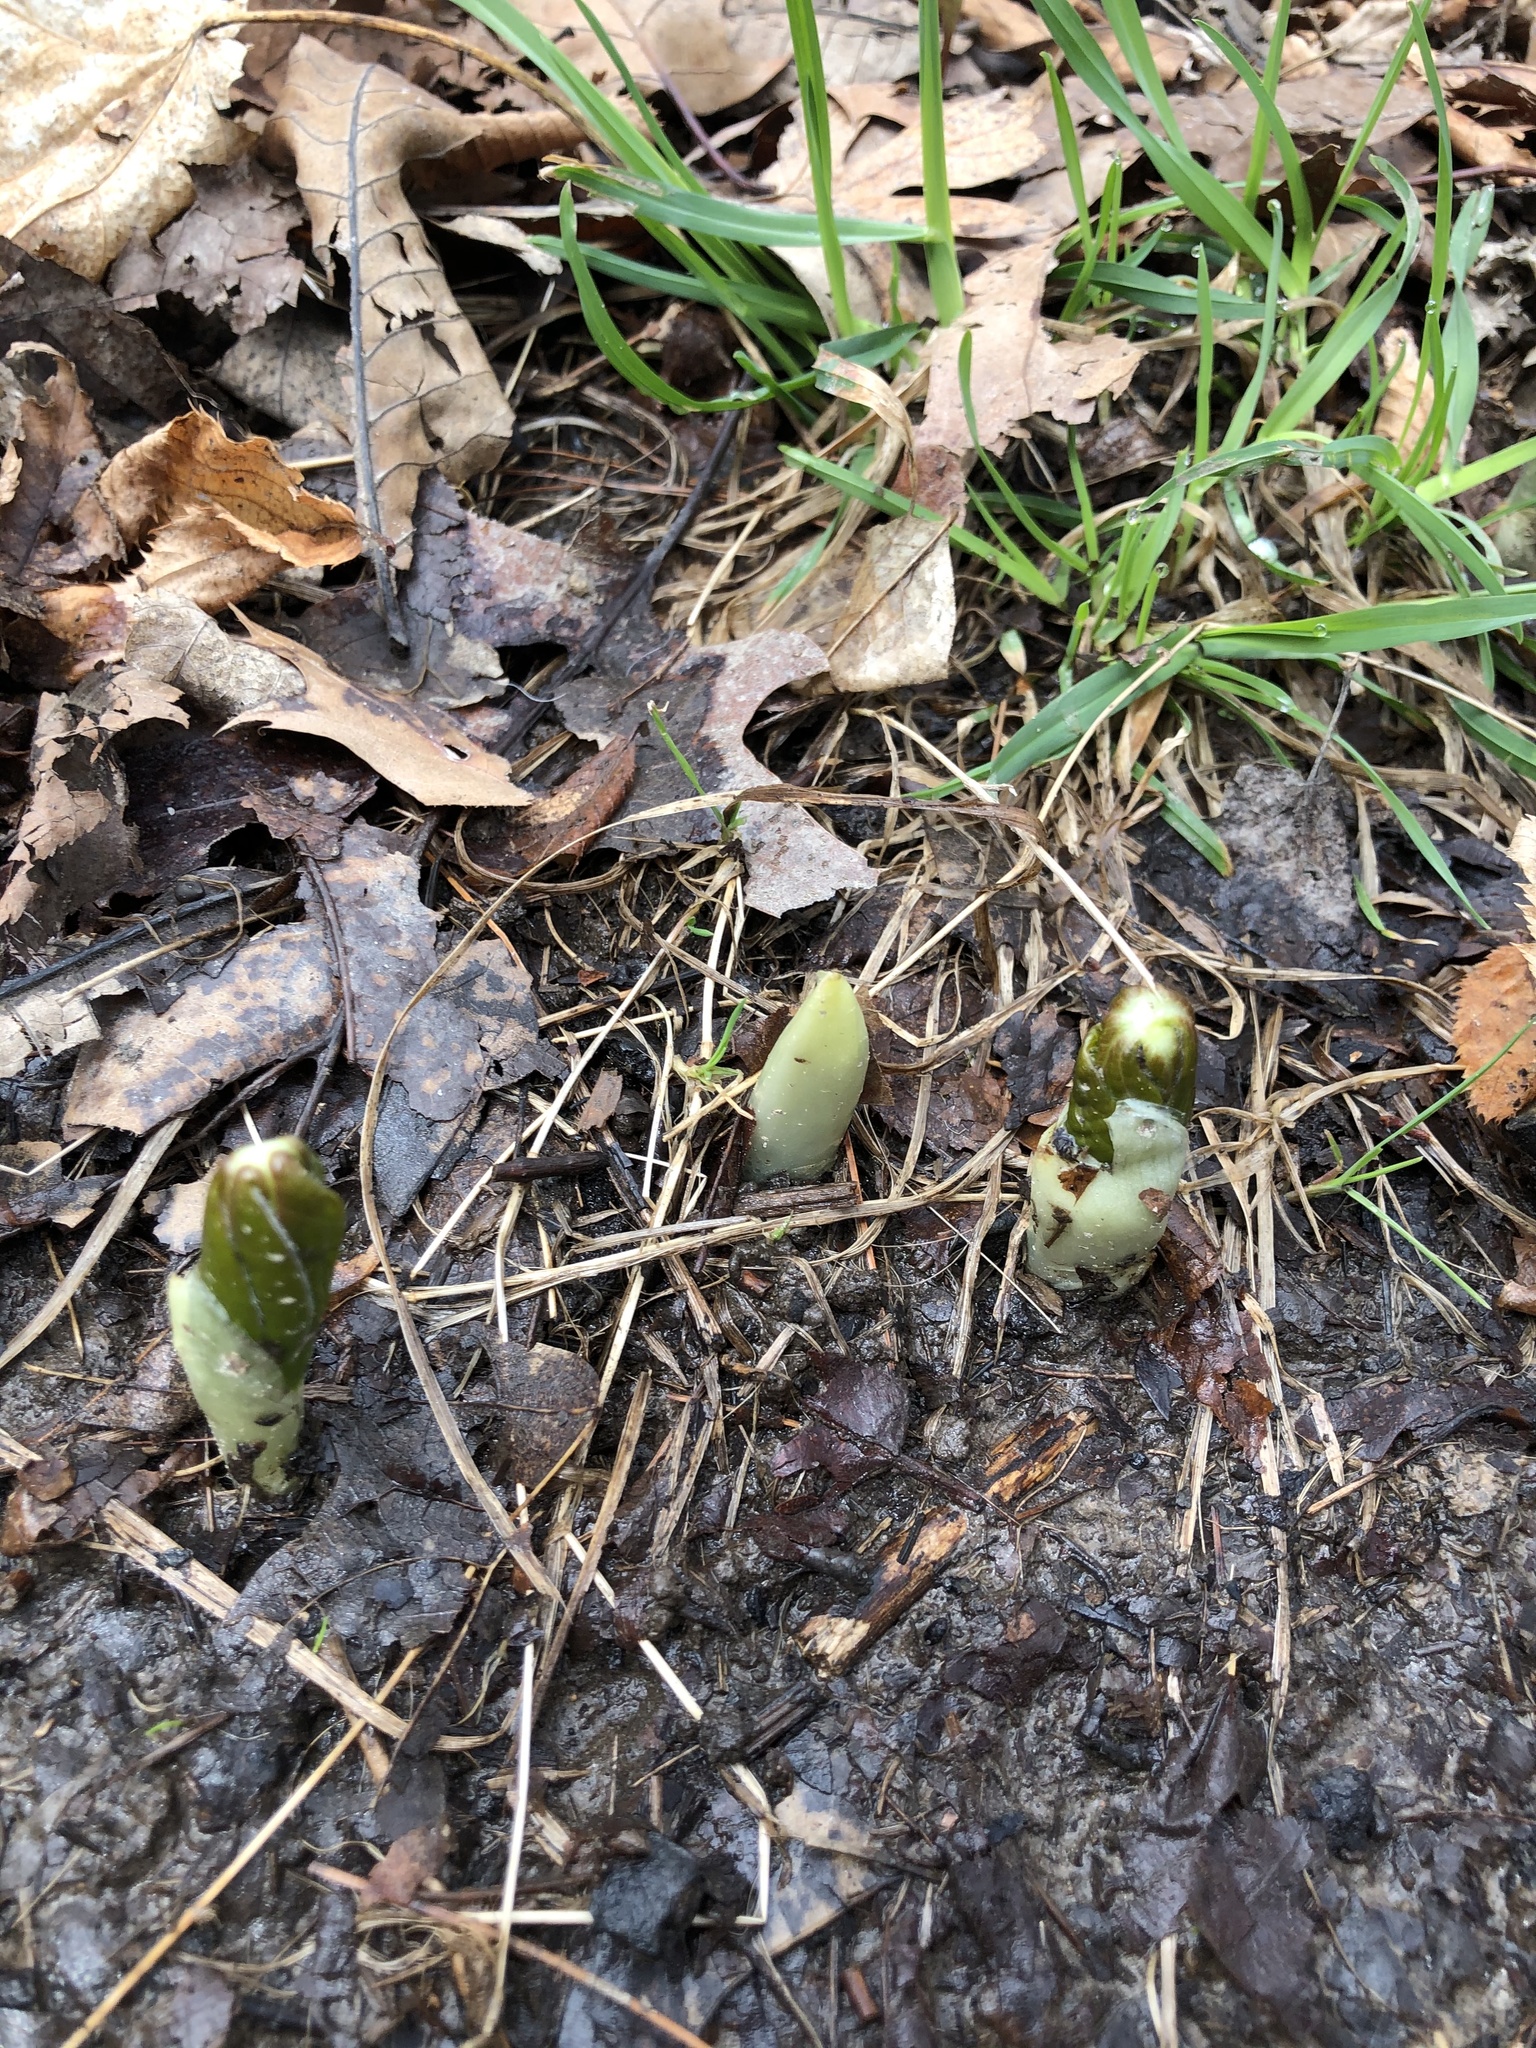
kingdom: Plantae
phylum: Tracheophyta
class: Magnoliopsida
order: Ranunculales
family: Berberidaceae
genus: Podophyllum
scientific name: Podophyllum peltatum
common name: Wild mandrake
